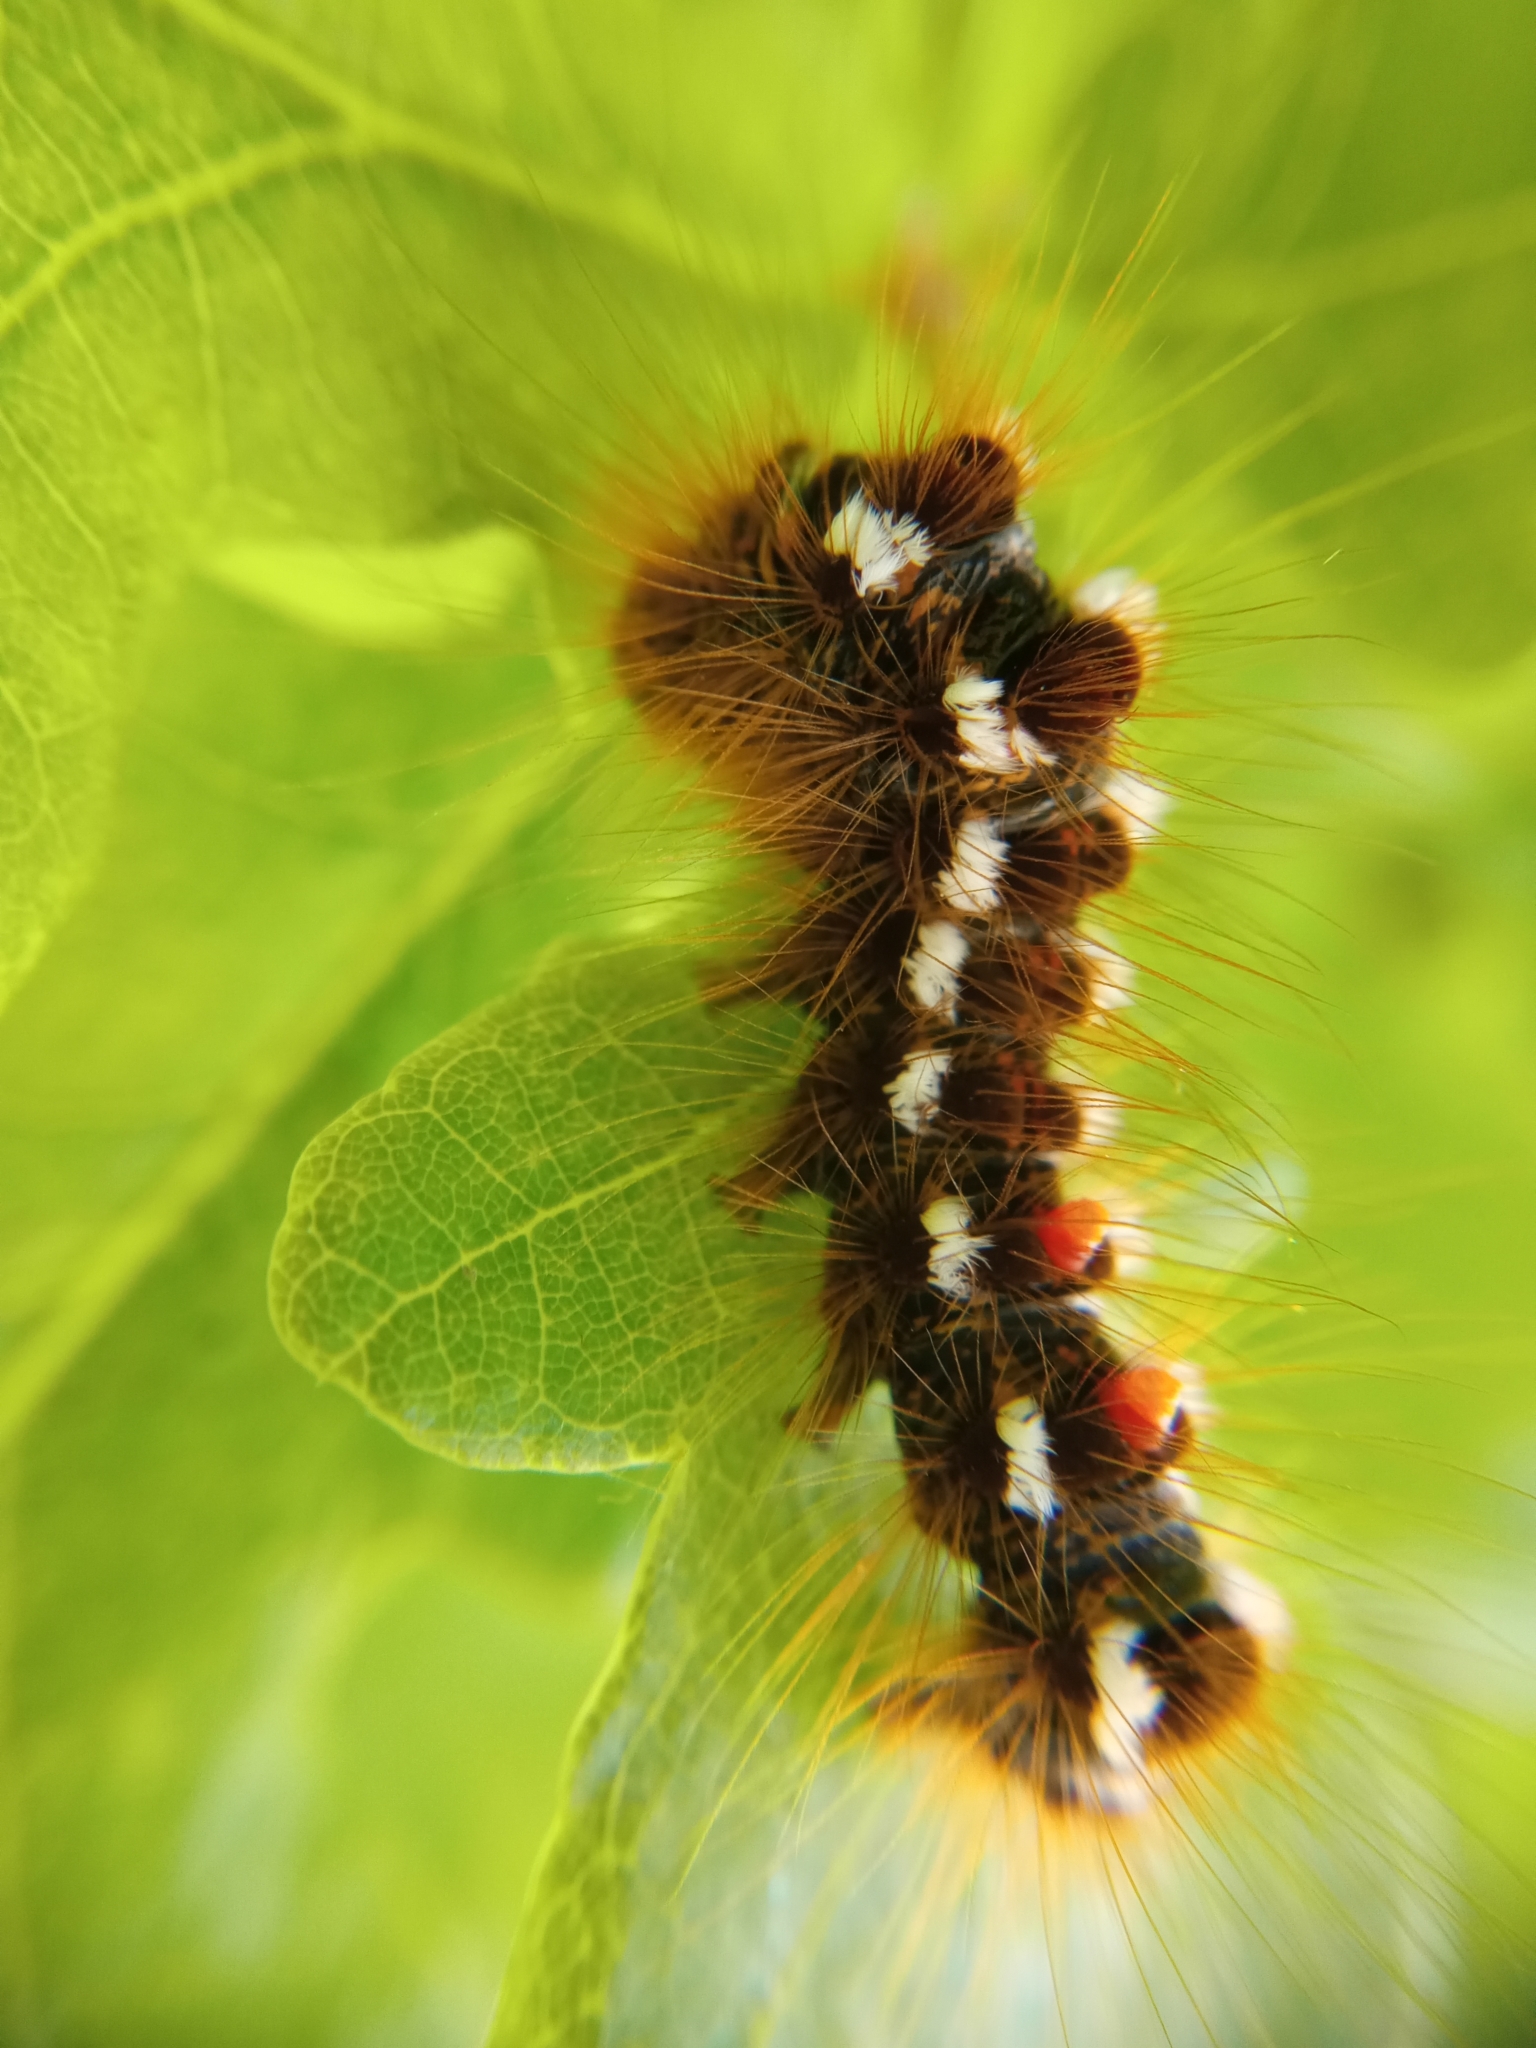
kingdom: Animalia
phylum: Arthropoda
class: Insecta
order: Lepidoptera
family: Erebidae
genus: Euproctis
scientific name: Euproctis chrysorrhoea
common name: Brown-tail
